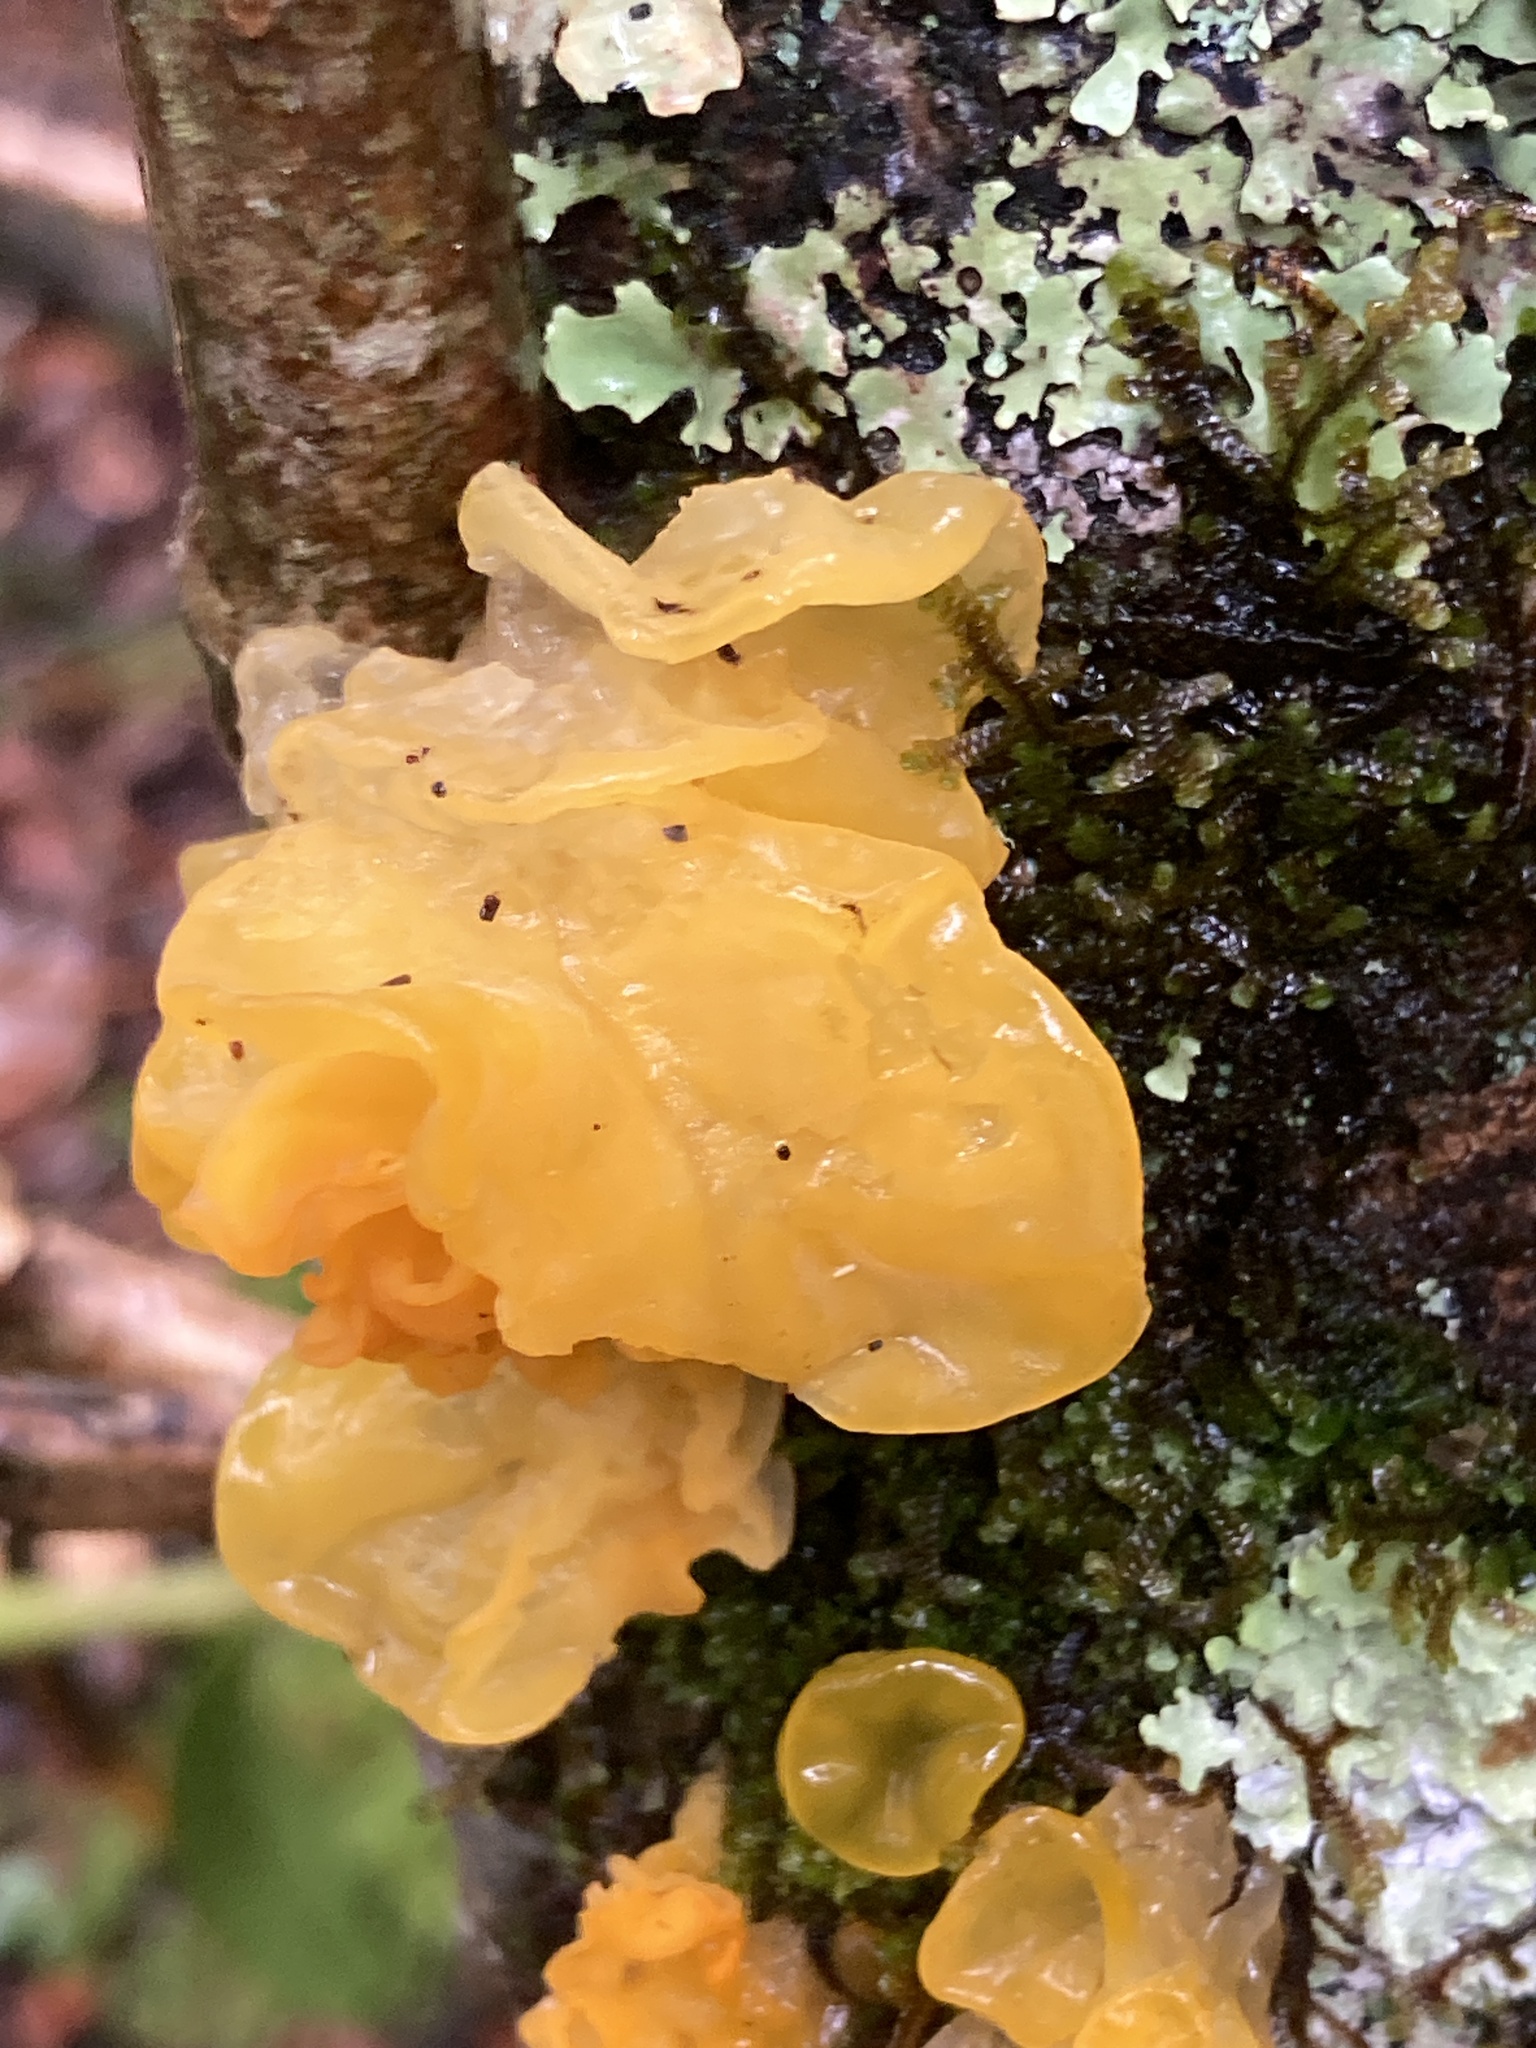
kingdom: Fungi
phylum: Basidiomycota
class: Tremellomycetes
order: Tremellales
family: Tremellaceae
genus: Tremella
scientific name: Tremella mesenterica
